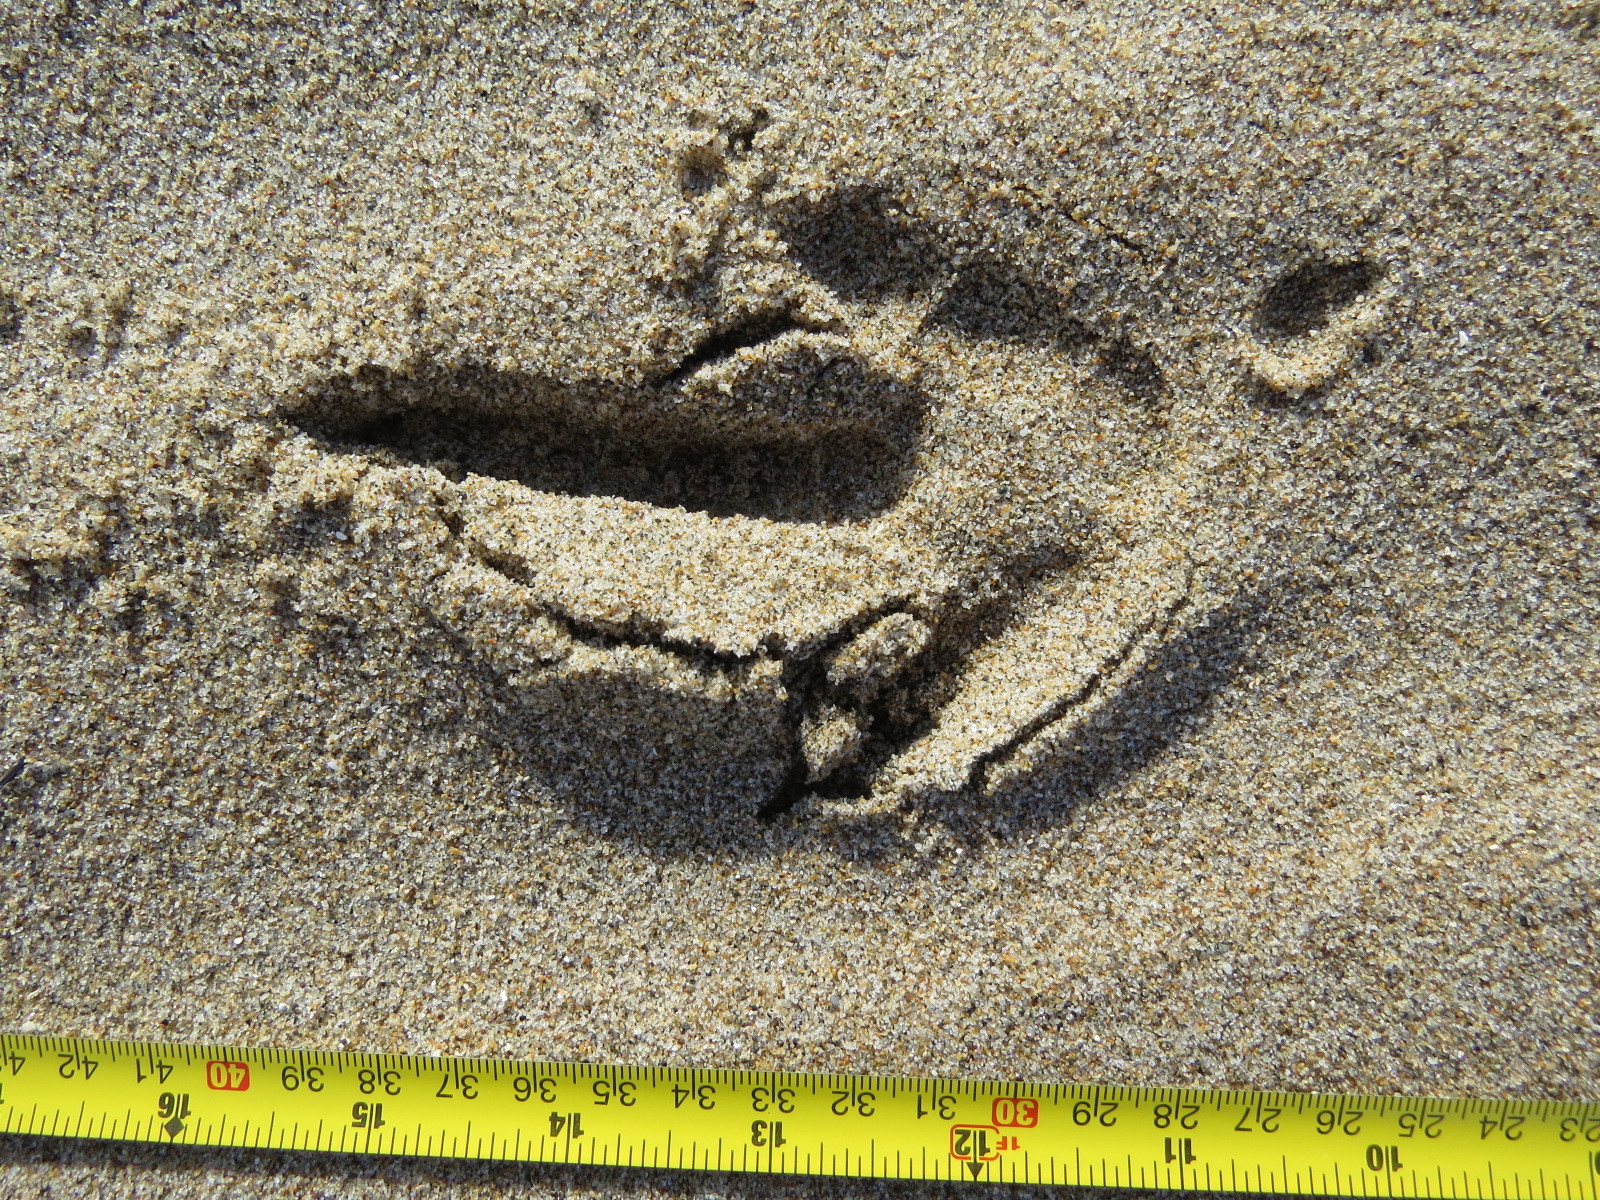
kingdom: Animalia
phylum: Chordata
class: Aves
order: Accipitriformes
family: Cathartidae
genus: Cathartes
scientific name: Cathartes aura
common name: Turkey vulture
